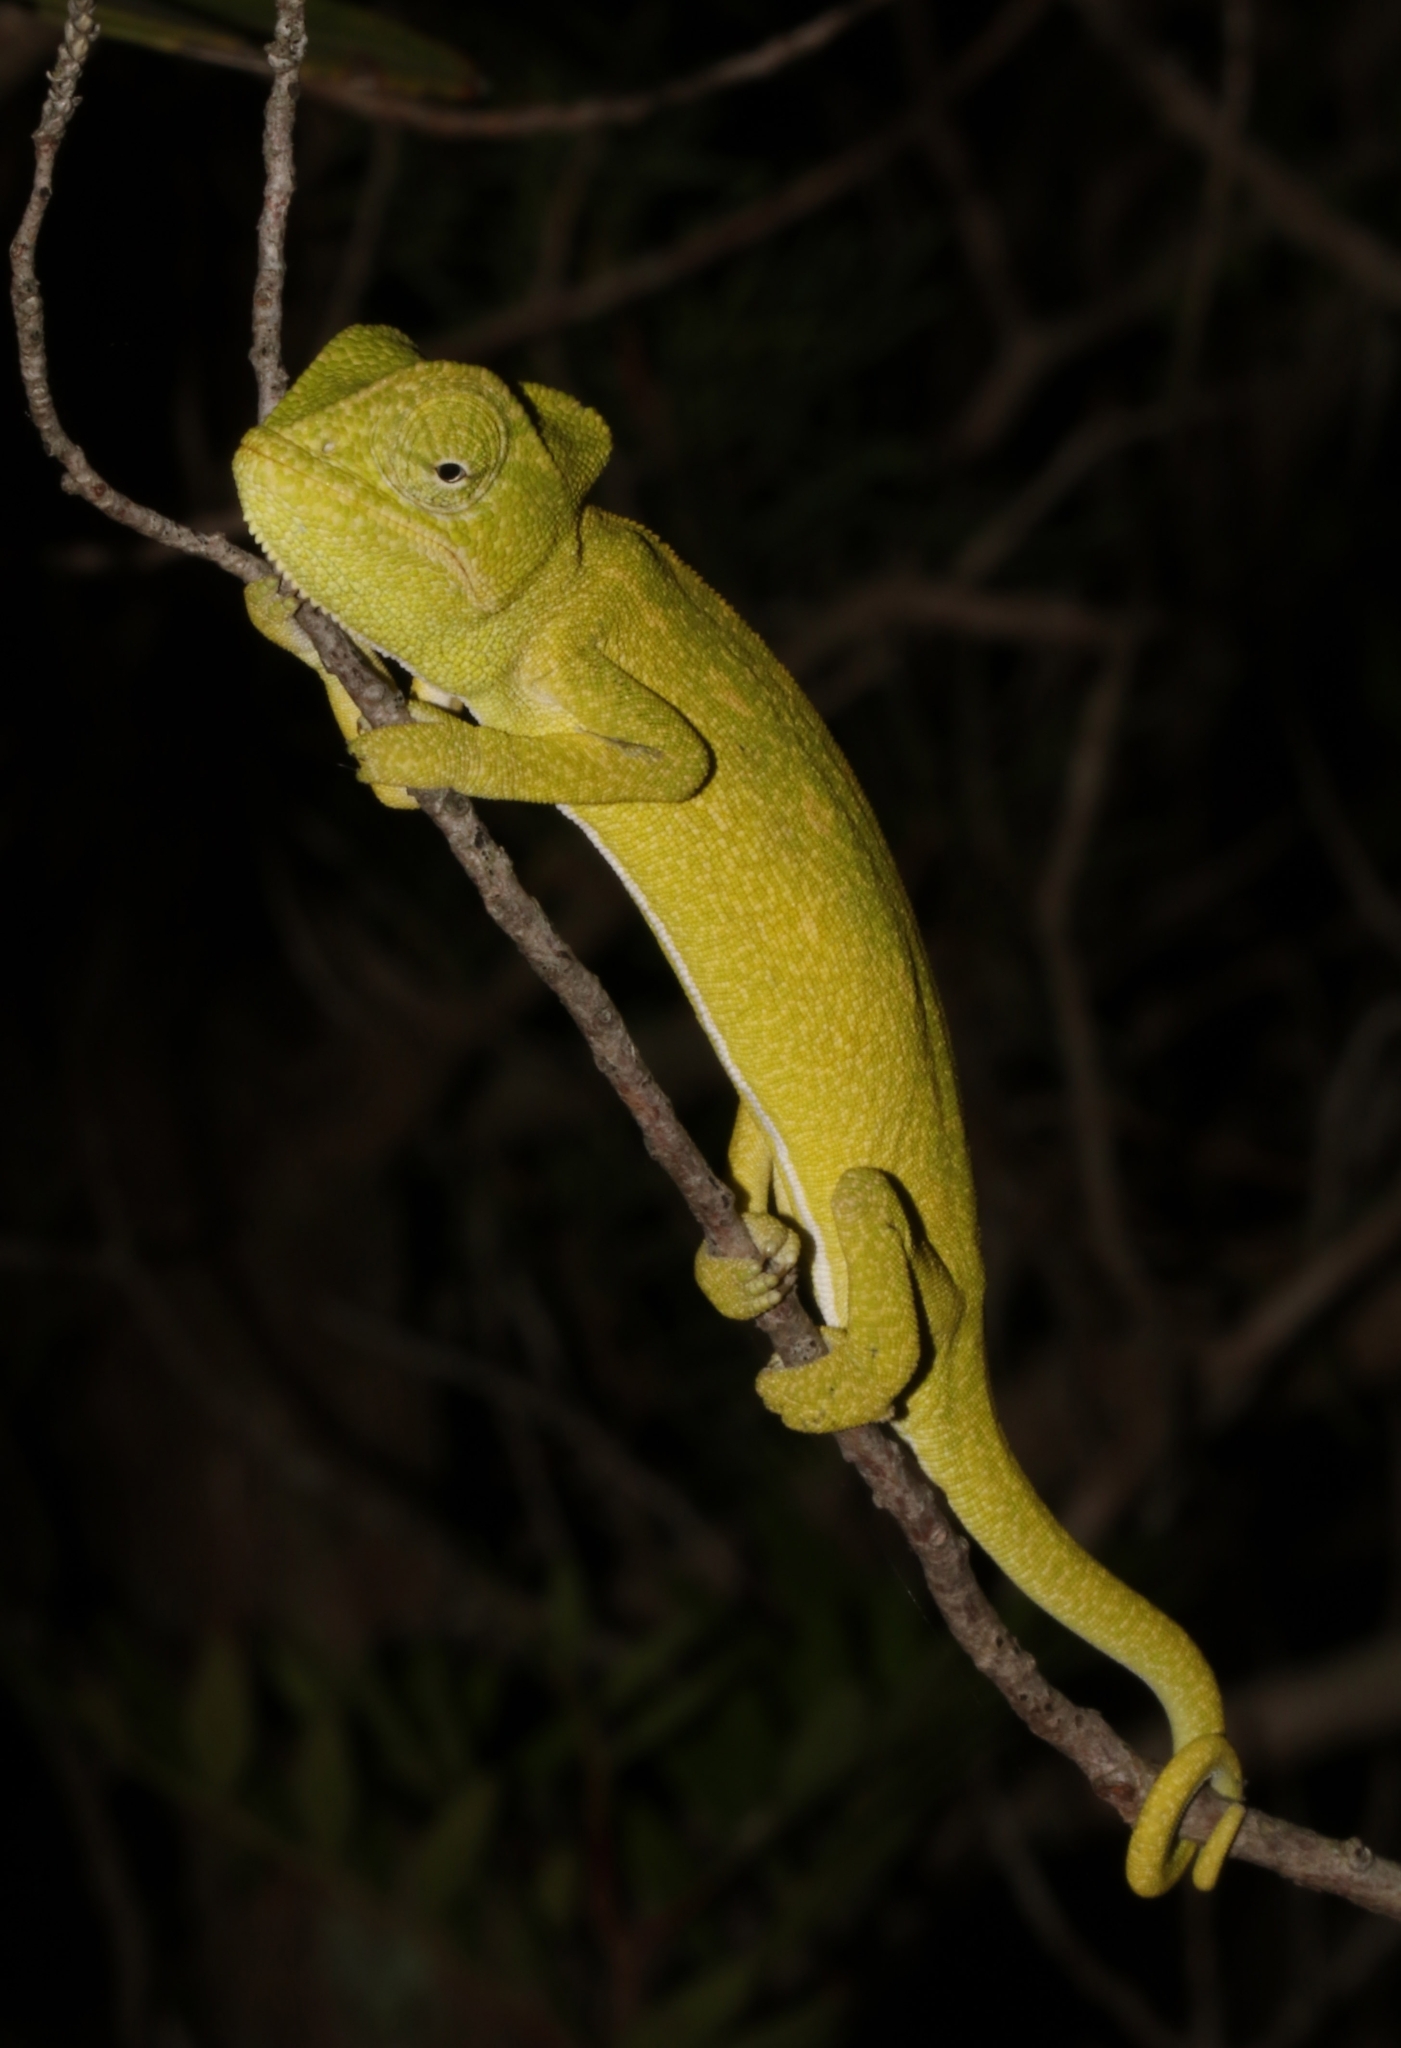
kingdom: Animalia
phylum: Chordata
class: Squamata
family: Chamaeleonidae
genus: Chamaeleo
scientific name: Chamaeleo africanus
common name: African chameleon
